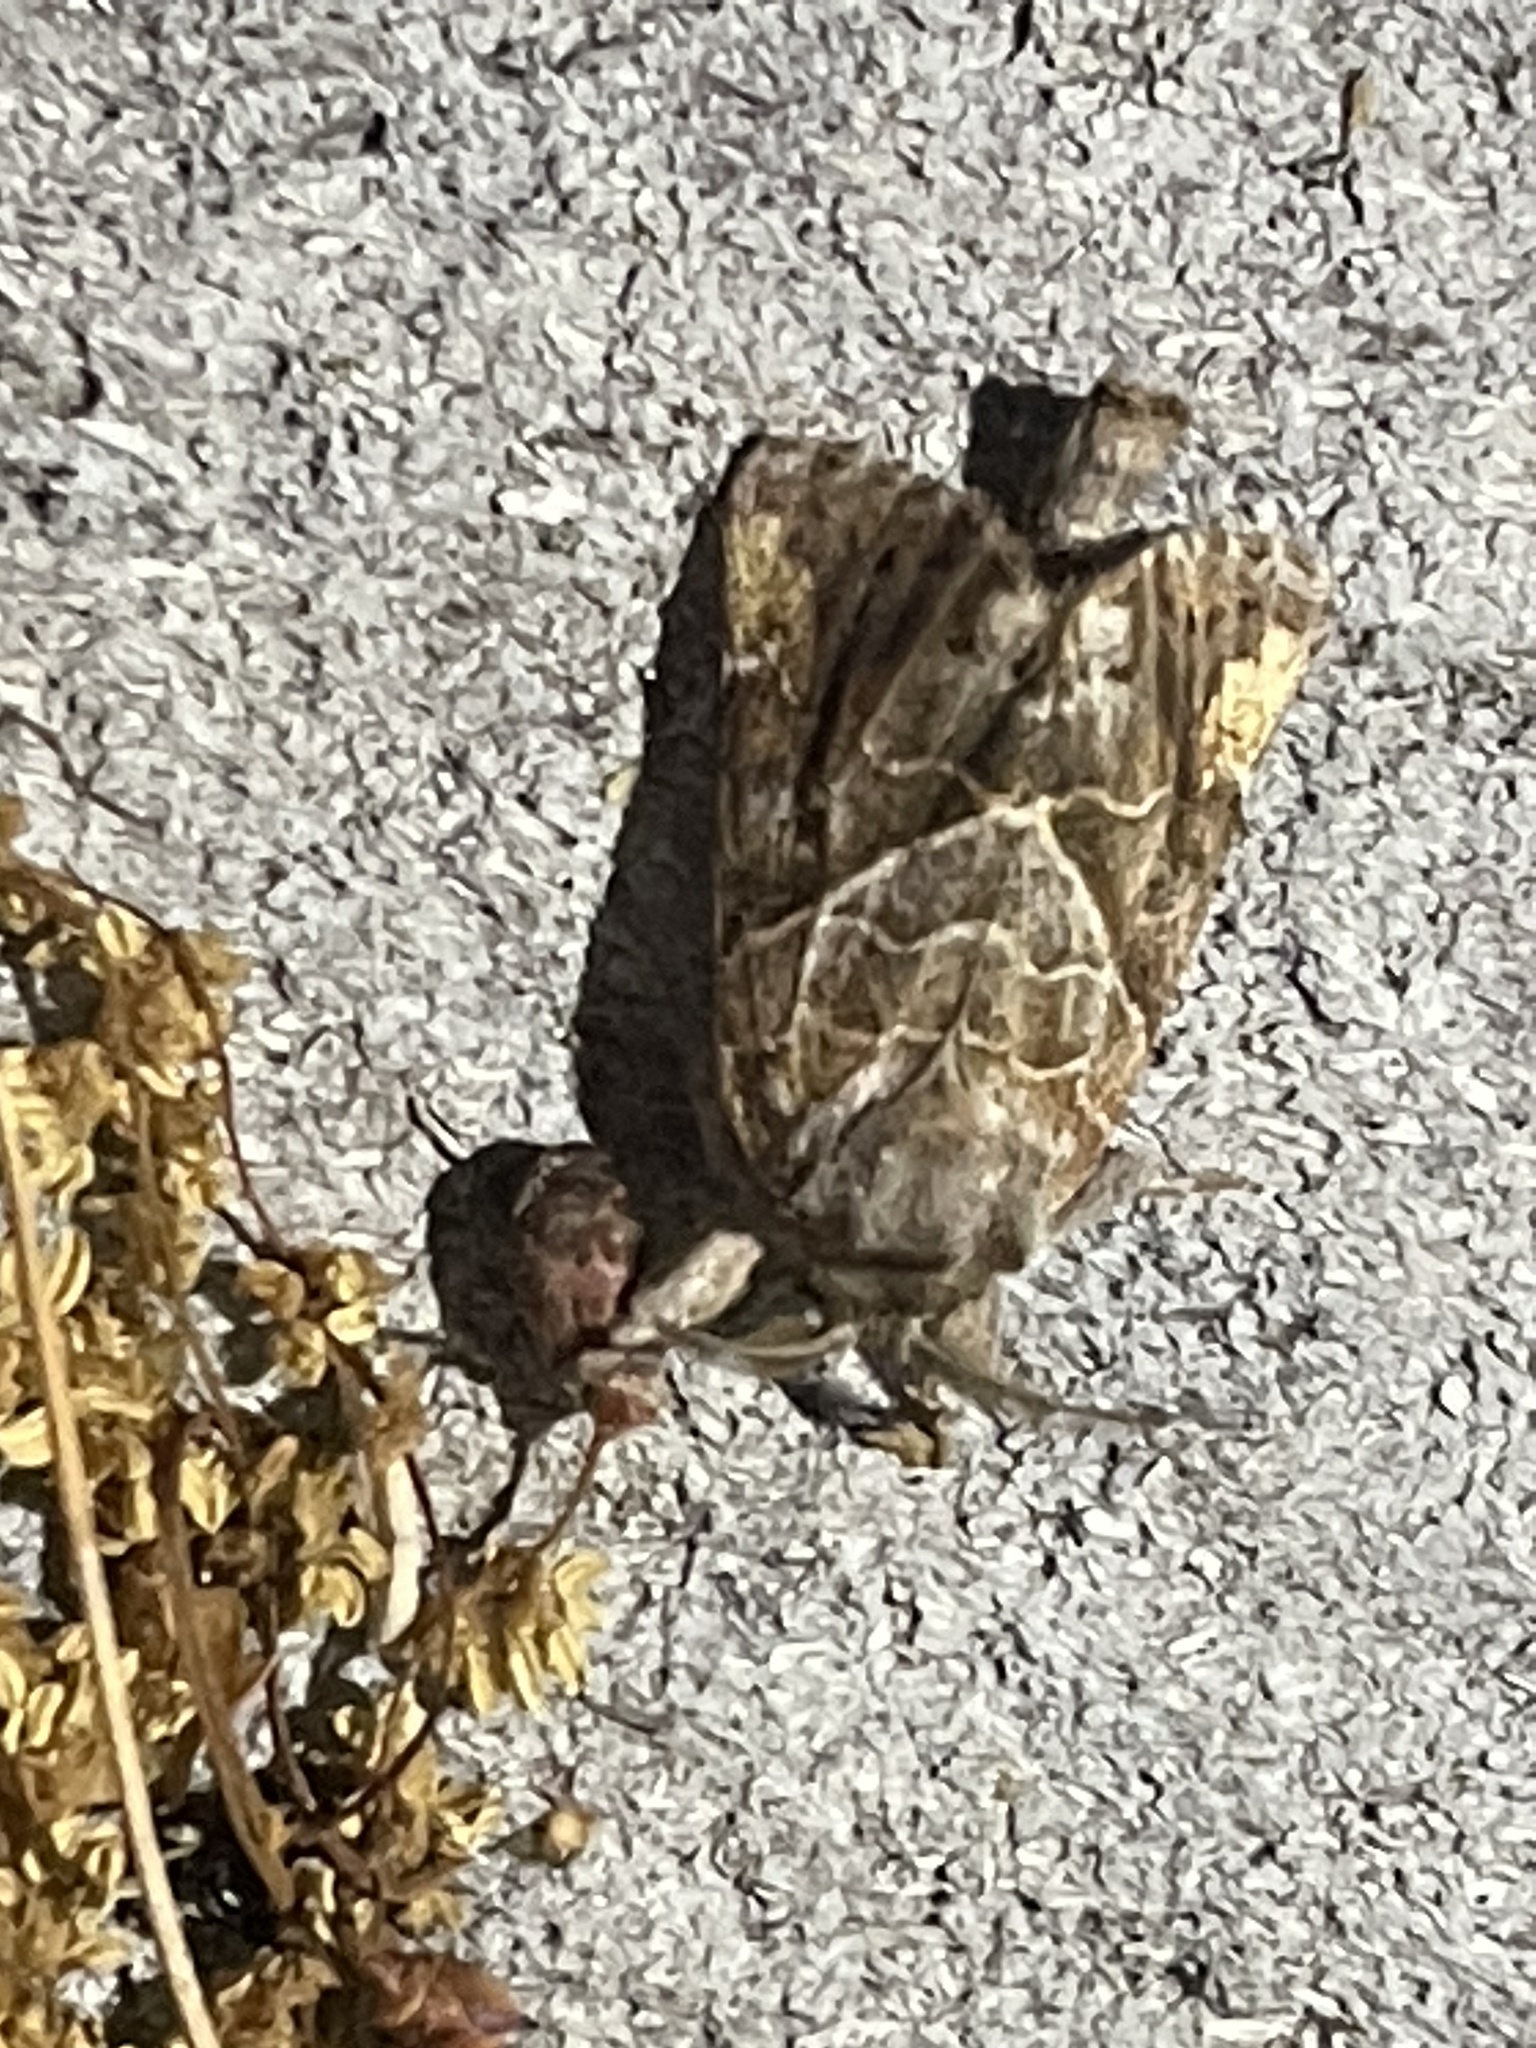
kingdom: Animalia
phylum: Arthropoda
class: Insecta
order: Lepidoptera
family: Notodontidae
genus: Clostera
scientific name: Clostera strigosa
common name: Striped chocolate-tip moth
